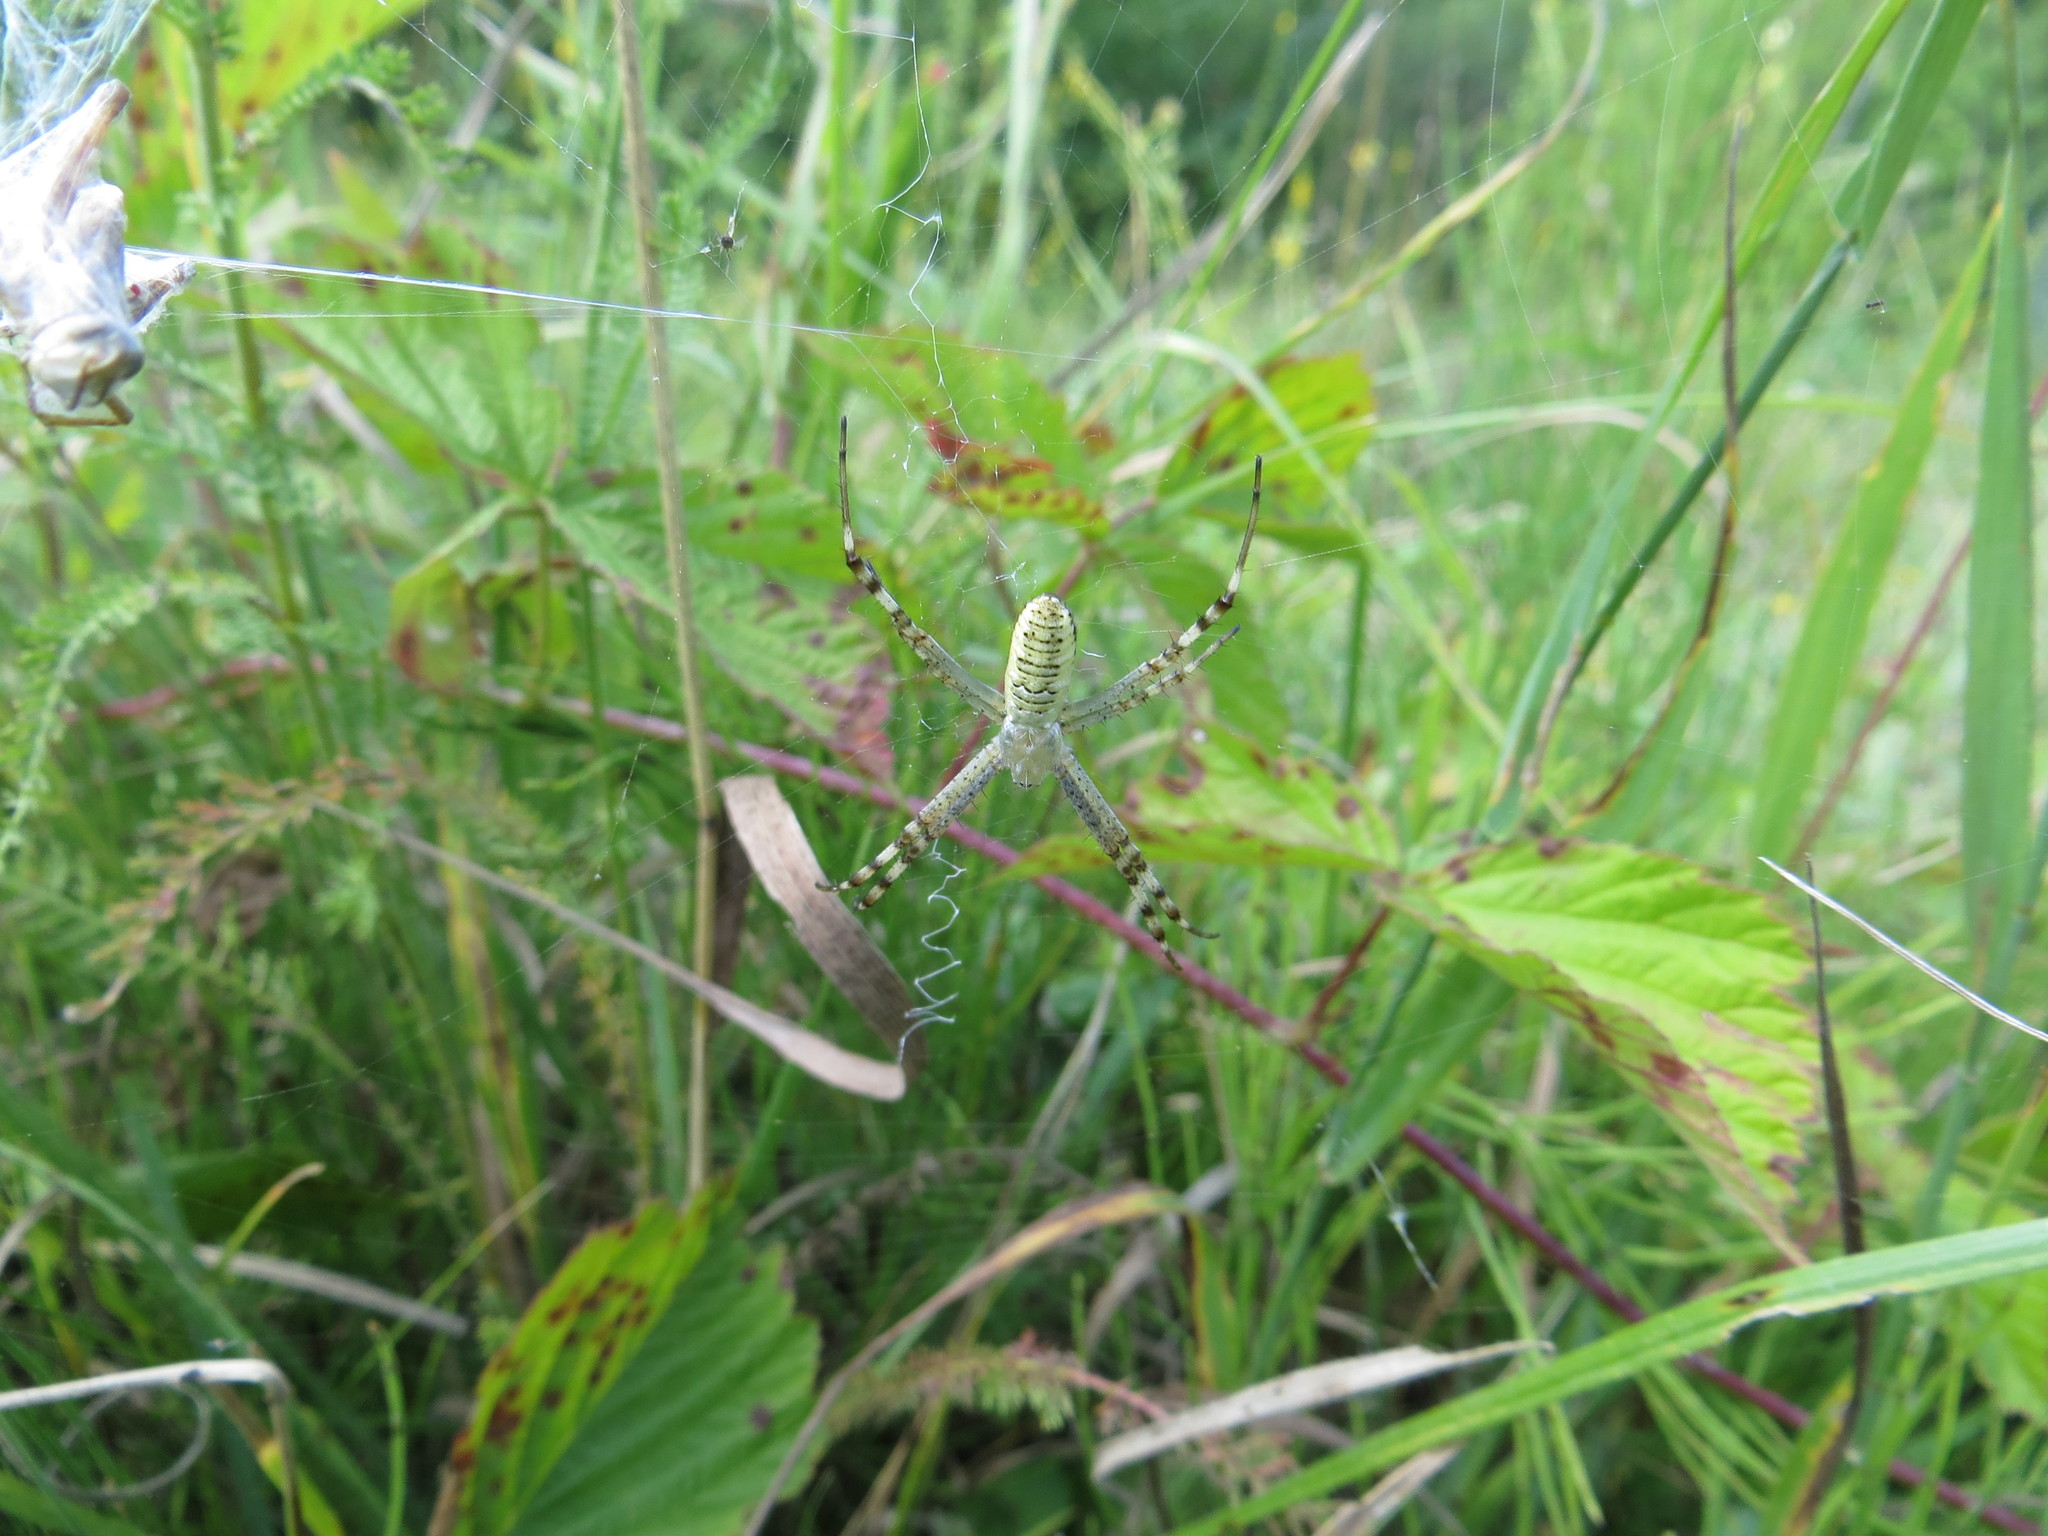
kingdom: Animalia
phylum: Arthropoda
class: Arachnida
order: Araneae
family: Araneidae
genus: Argiope
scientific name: Argiope bruennichi
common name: Wasp spider
